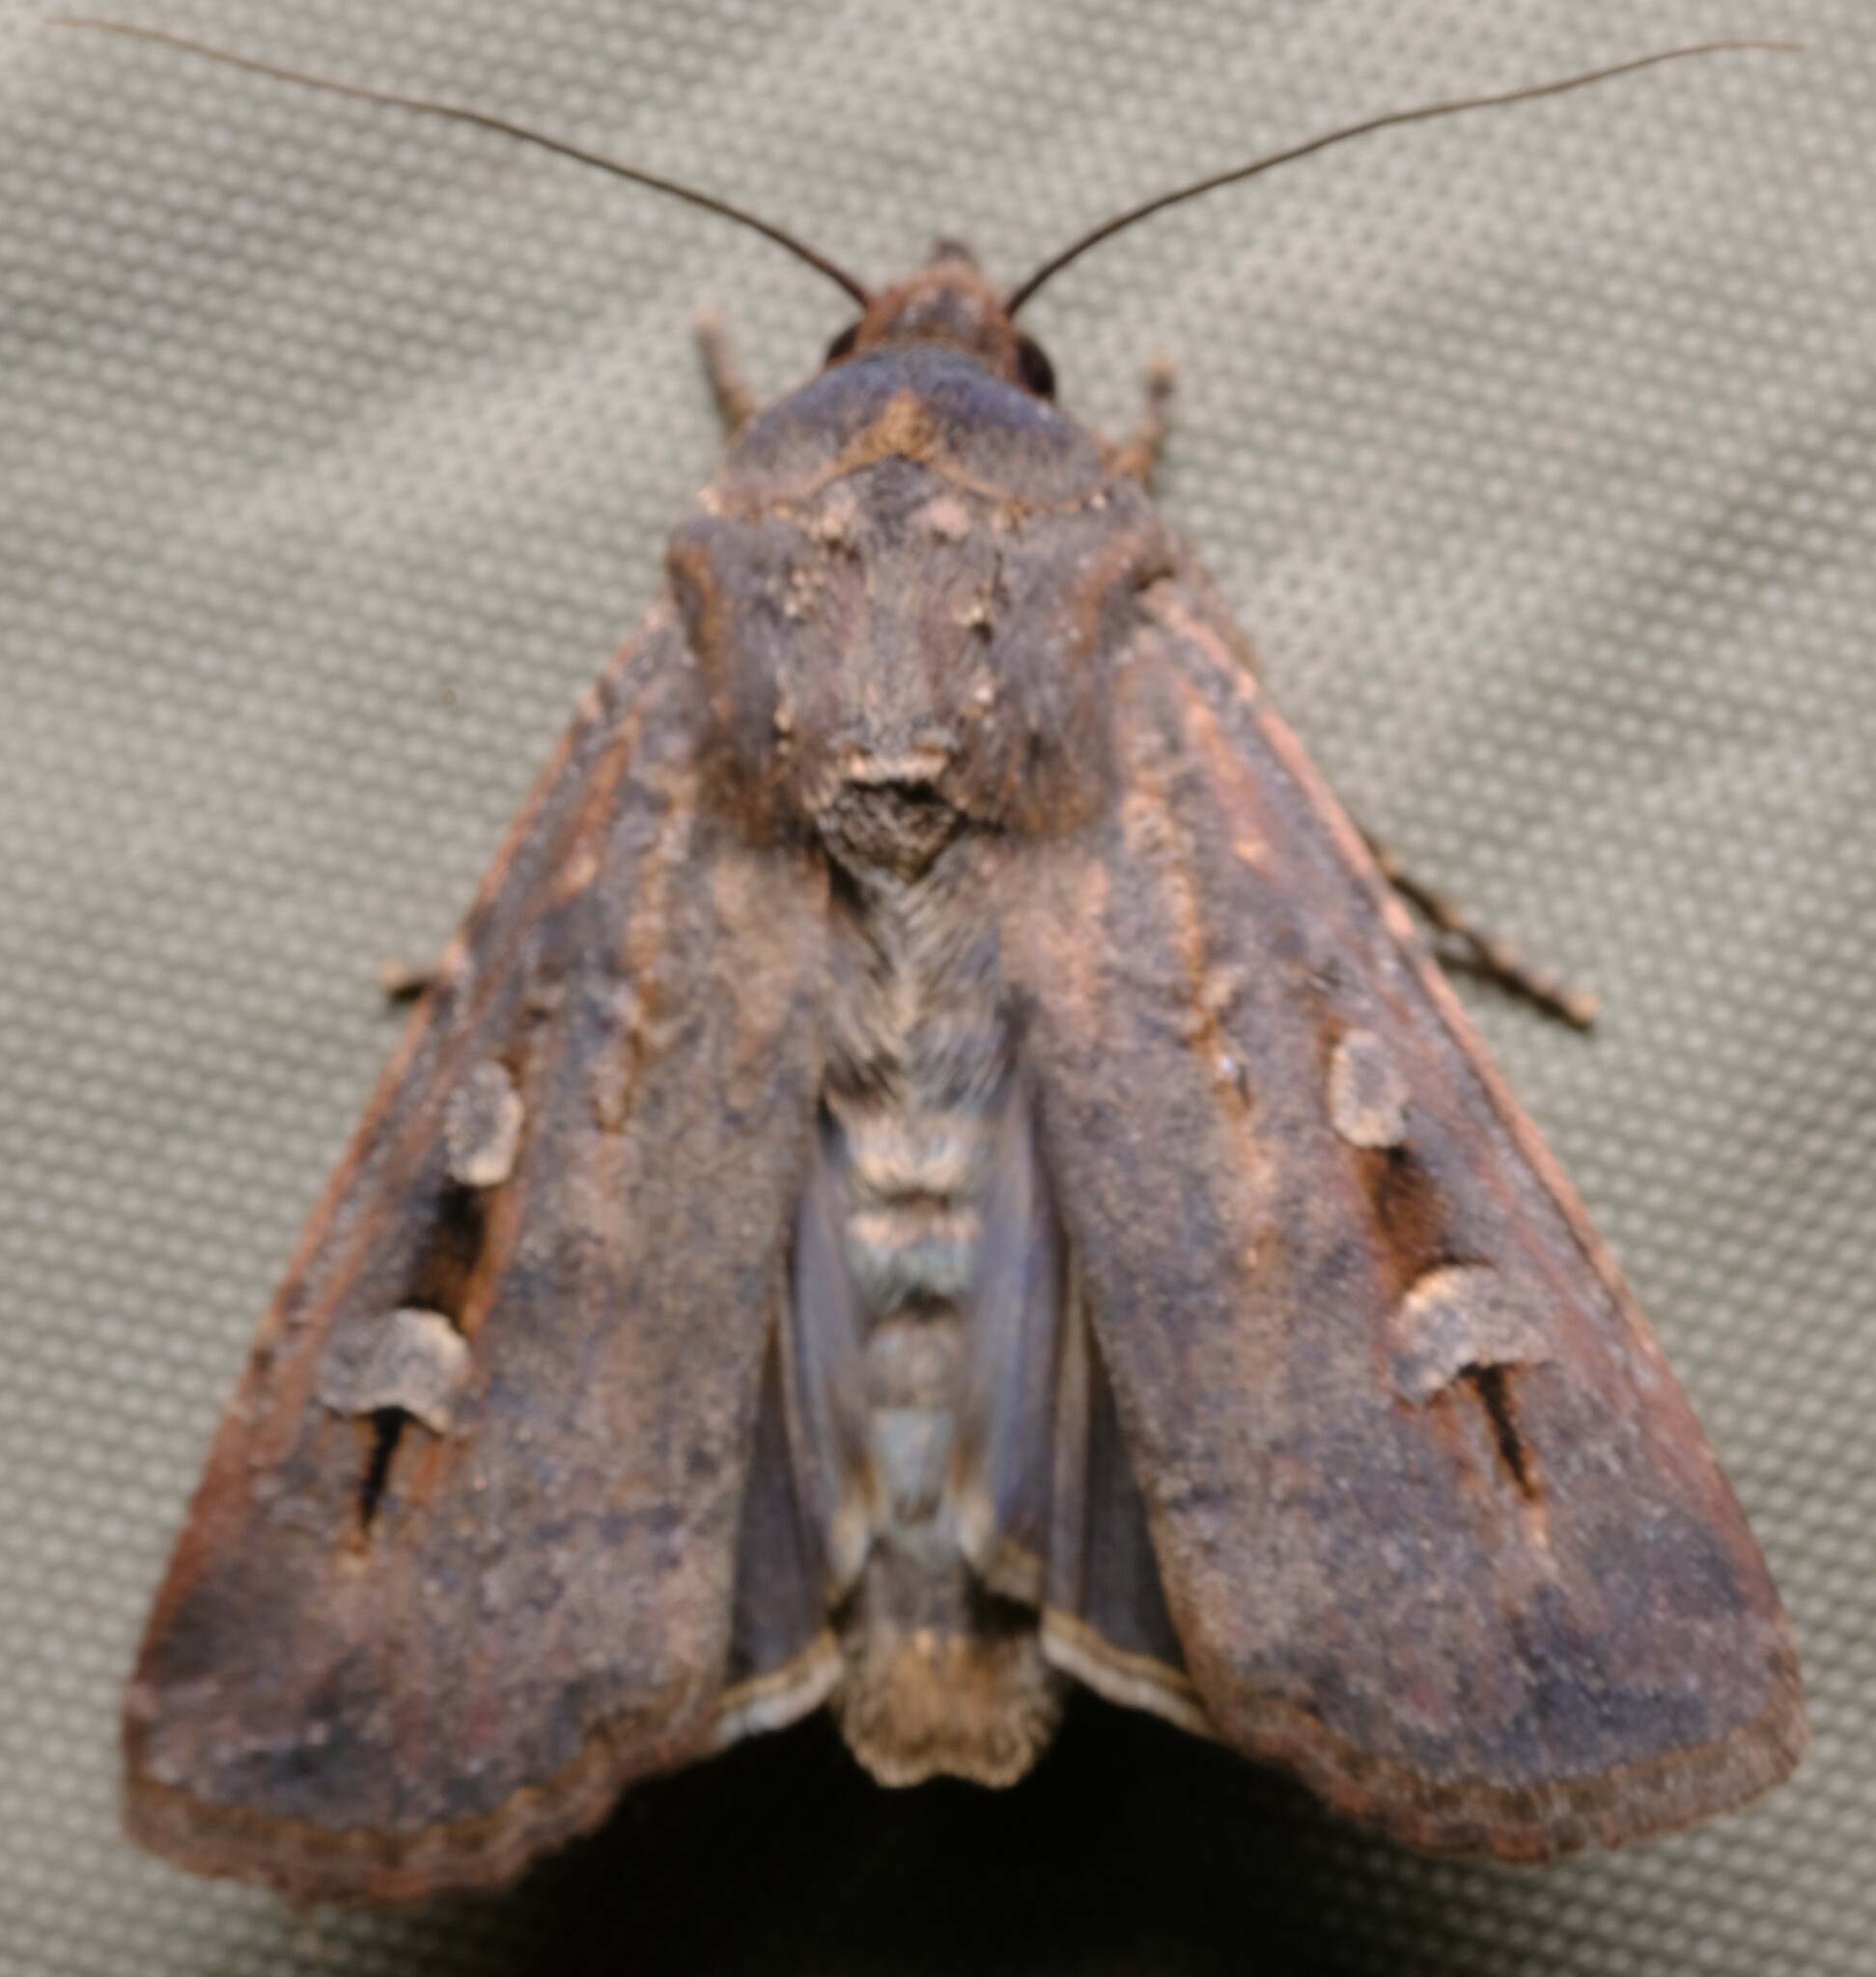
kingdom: Animalia
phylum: Arthropoda
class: Insecta
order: Lepidoptera
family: Noctuidae
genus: Agrotis
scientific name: Agrotis infusa
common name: Bogong moth
